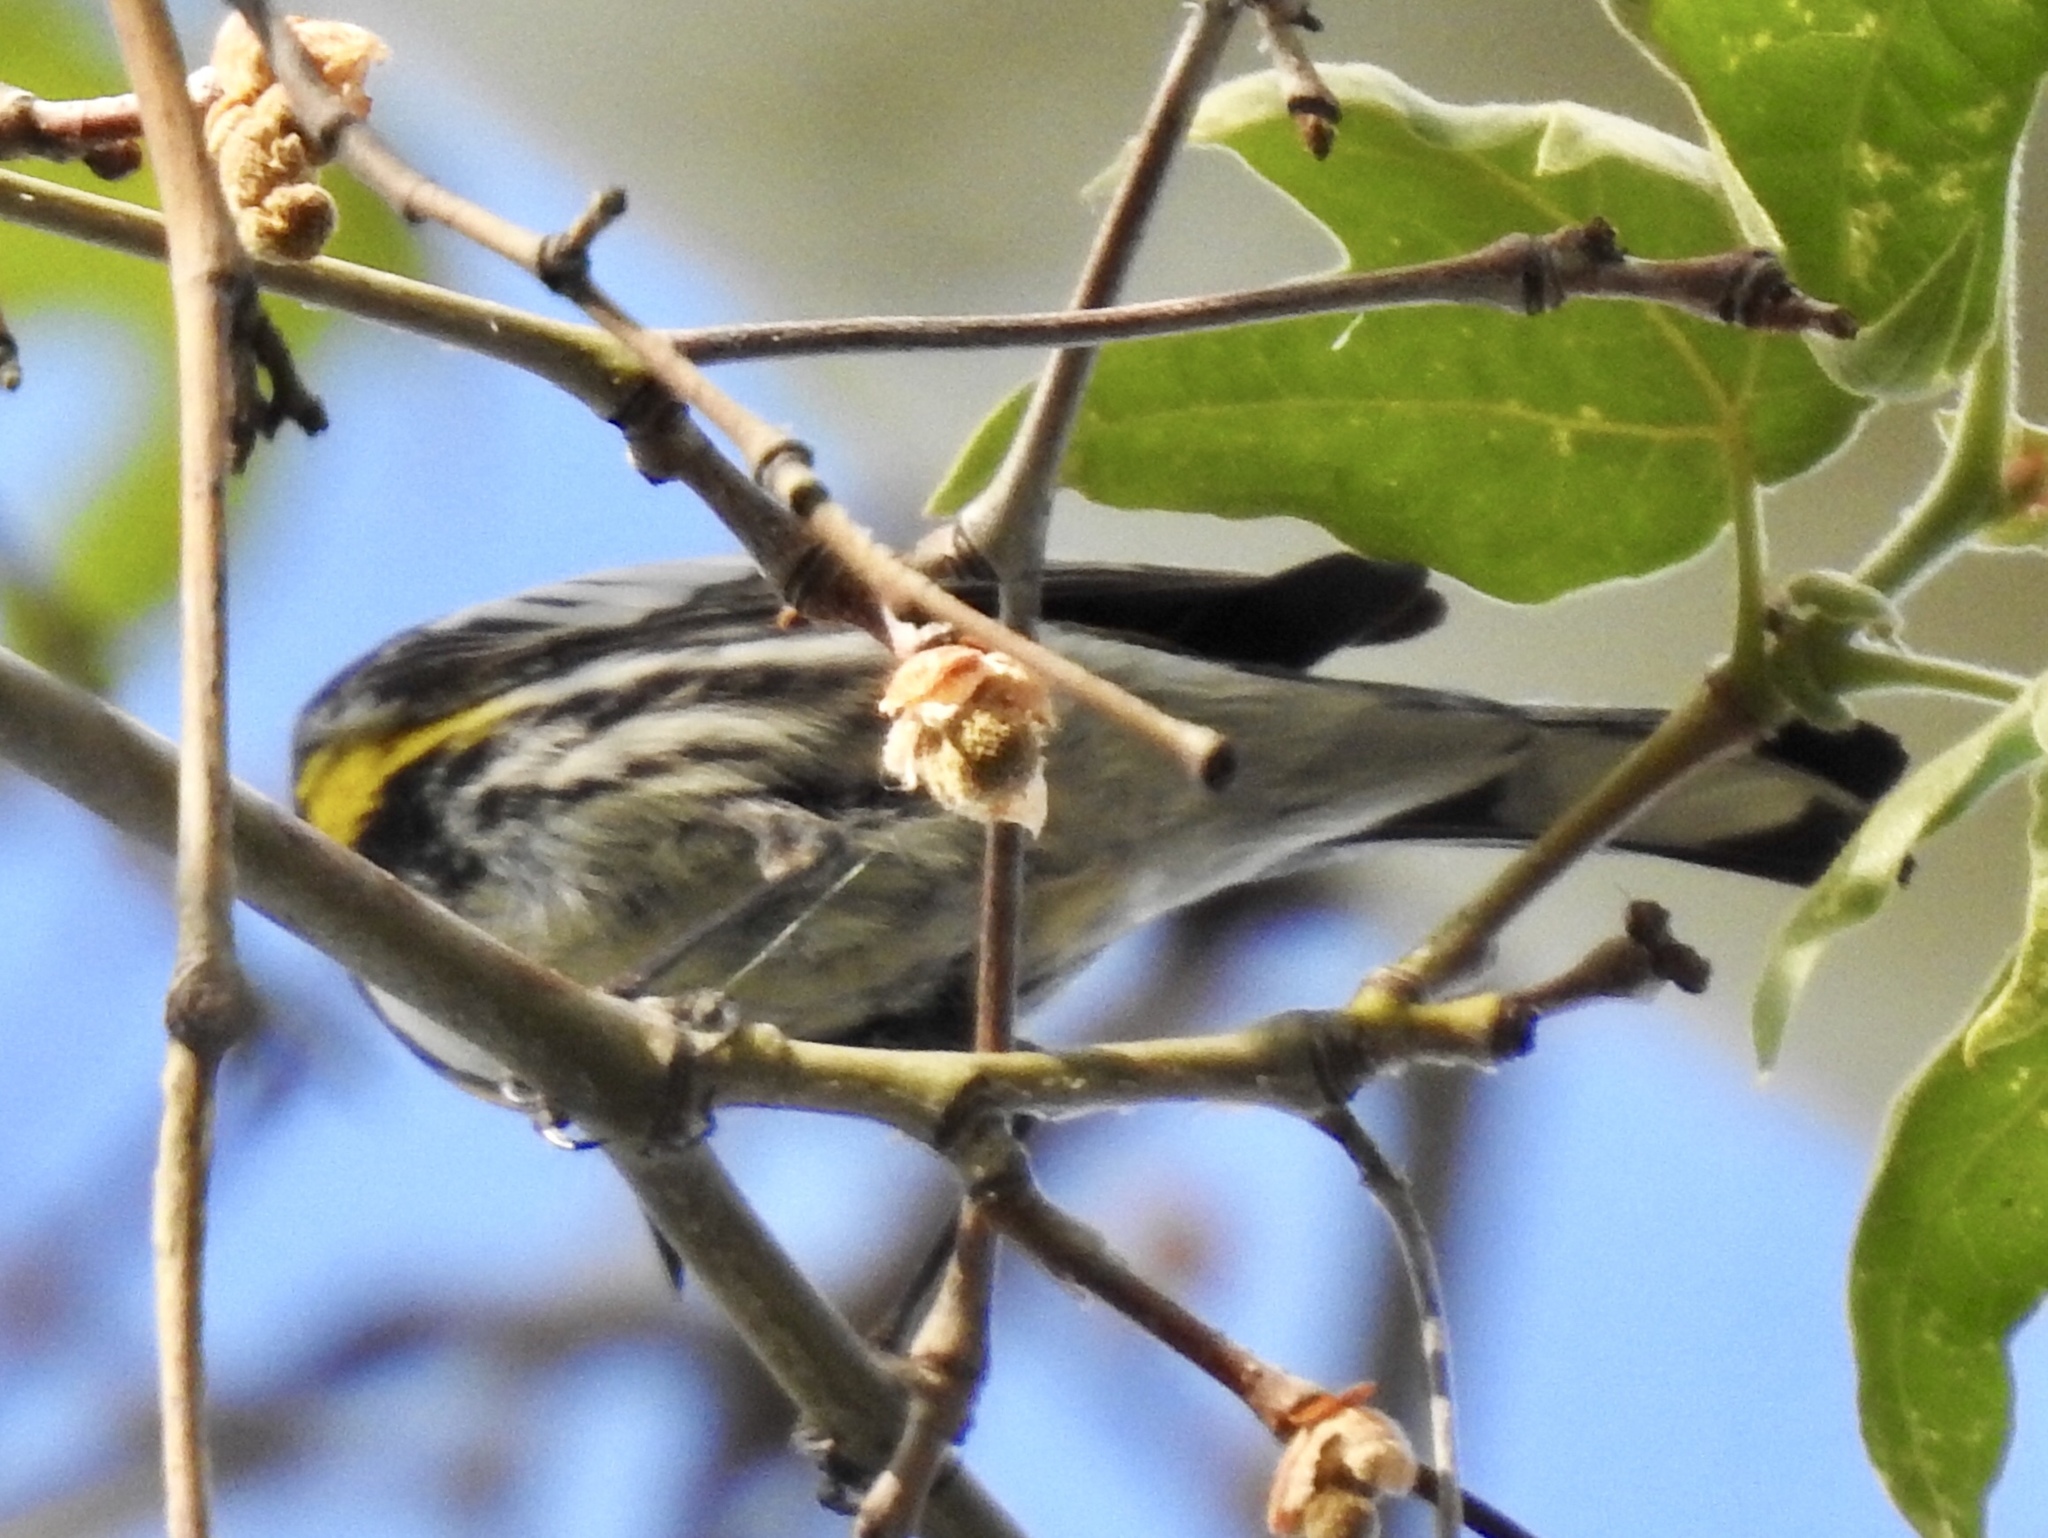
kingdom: Animalia
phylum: Chordata
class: Aves
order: Passeriformes
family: Parulidae
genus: Setophaga
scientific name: Setophaga coronata
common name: Myrtle warbler
